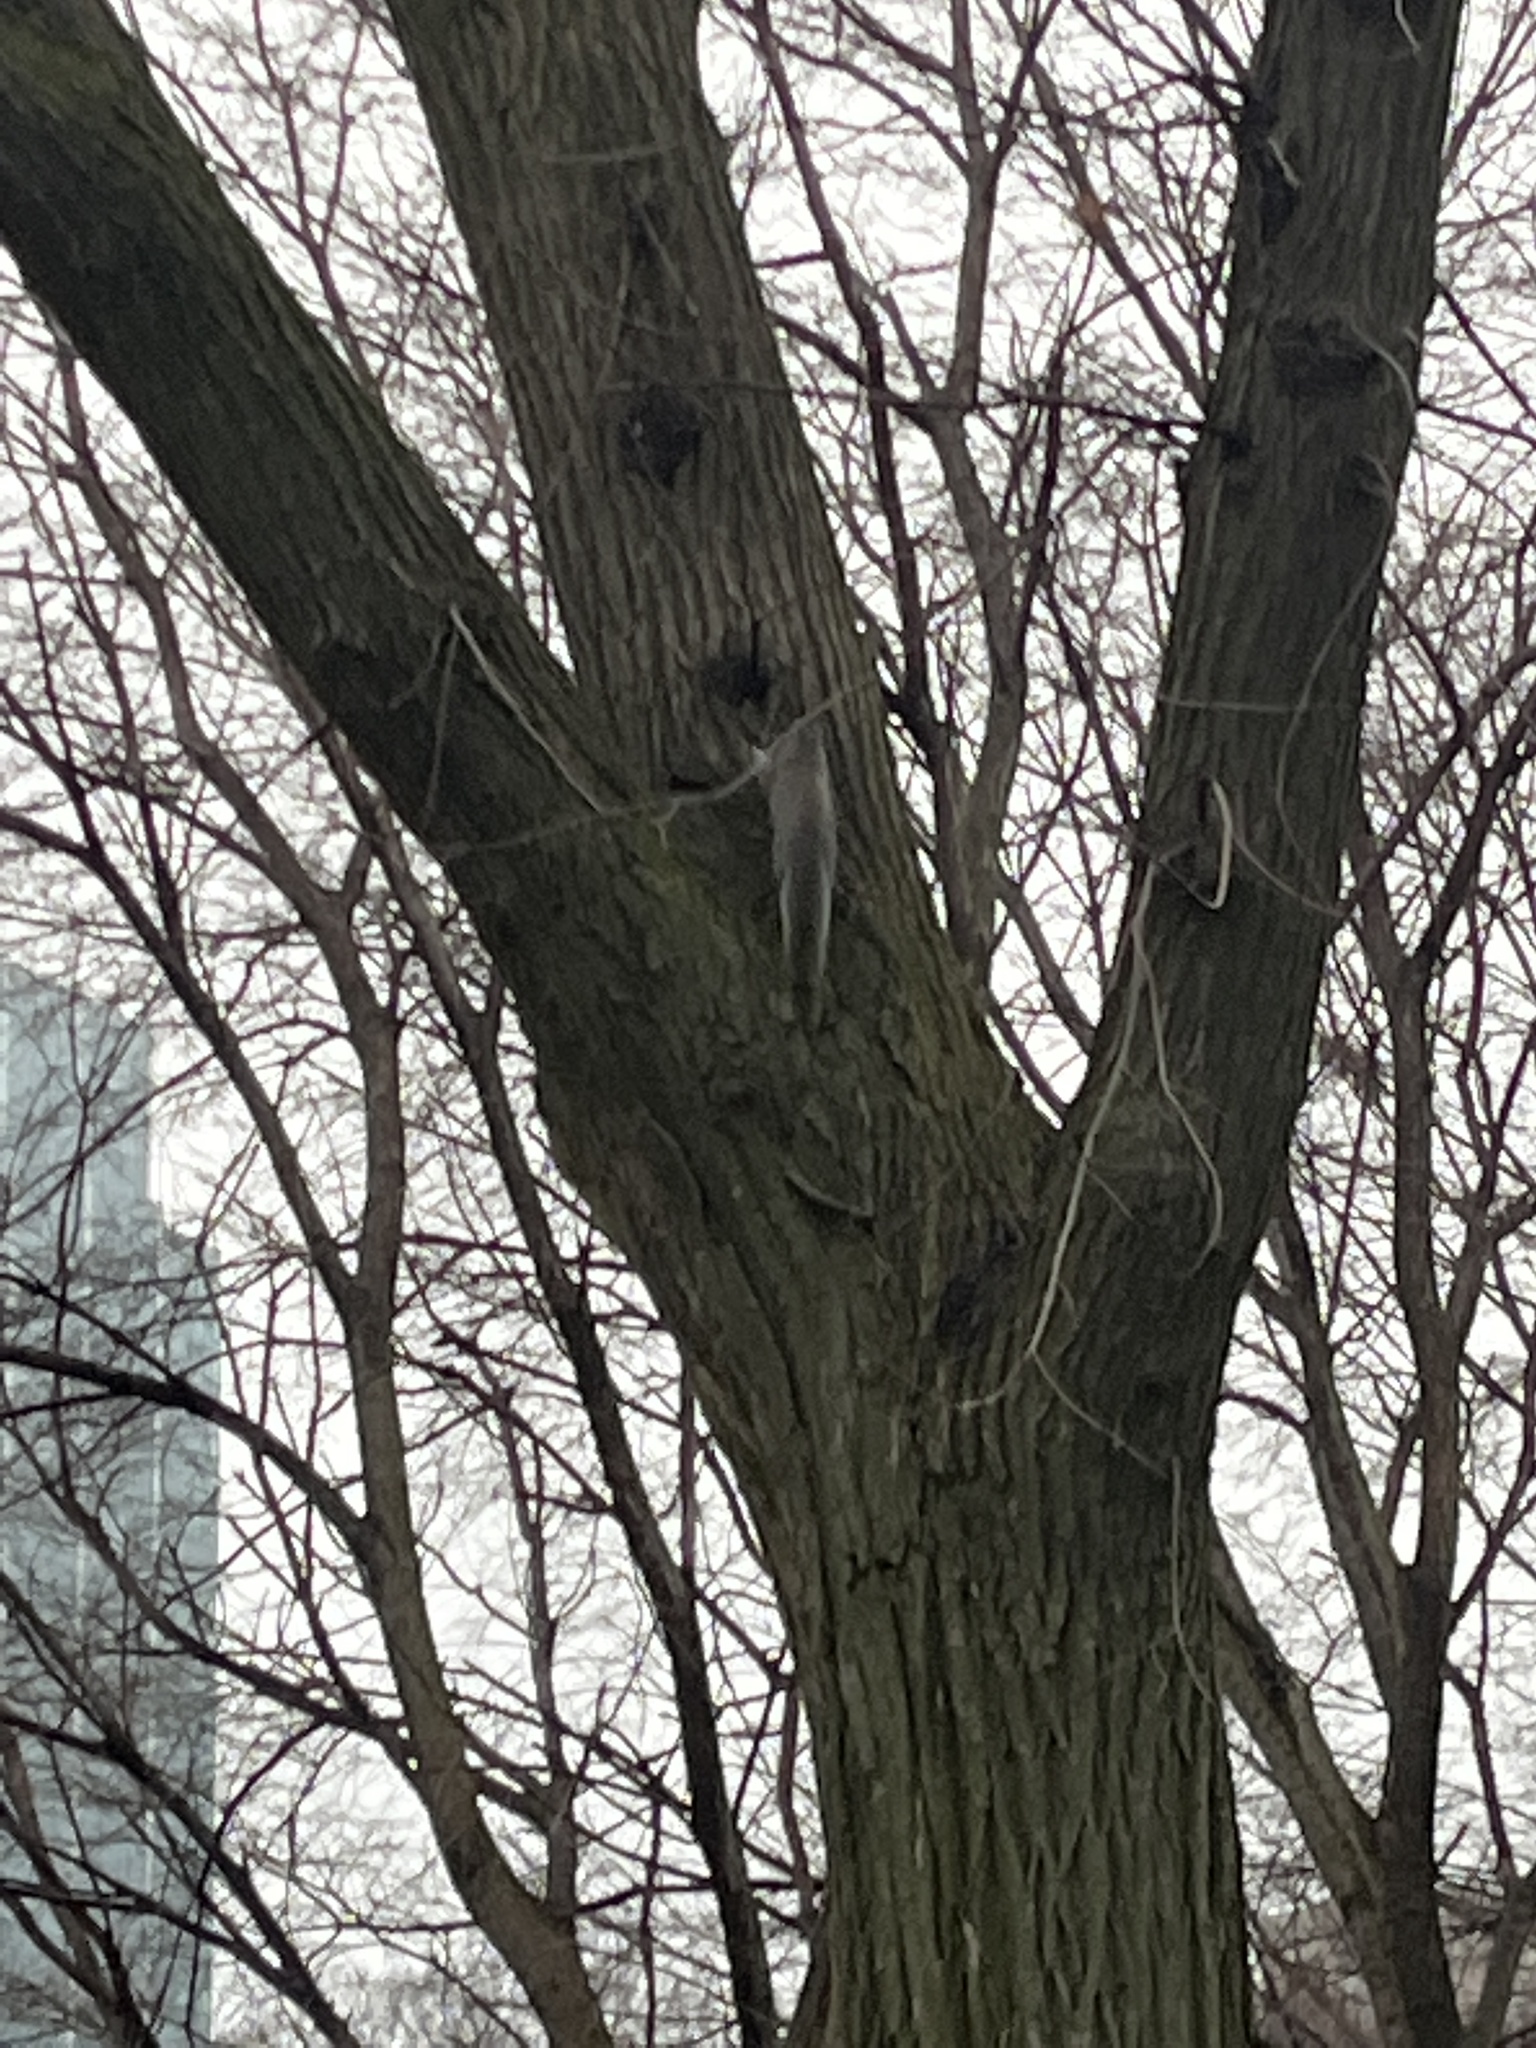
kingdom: Animalia
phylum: Chordata
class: Mammalia
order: Rodentia
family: Sciuridae
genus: Sciurus
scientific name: Sciurus carolinensis
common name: Eastern gray squirrel
